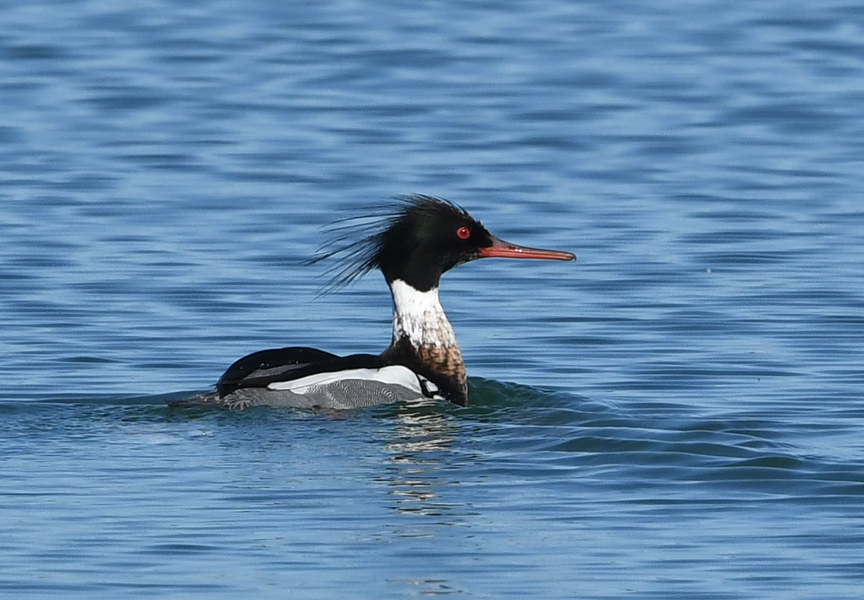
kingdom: Animalia
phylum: Chordata
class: Aves
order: Anseriformes
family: Anatidae
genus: Mergus
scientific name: Mergus serrator
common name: Red-breasted merganser
